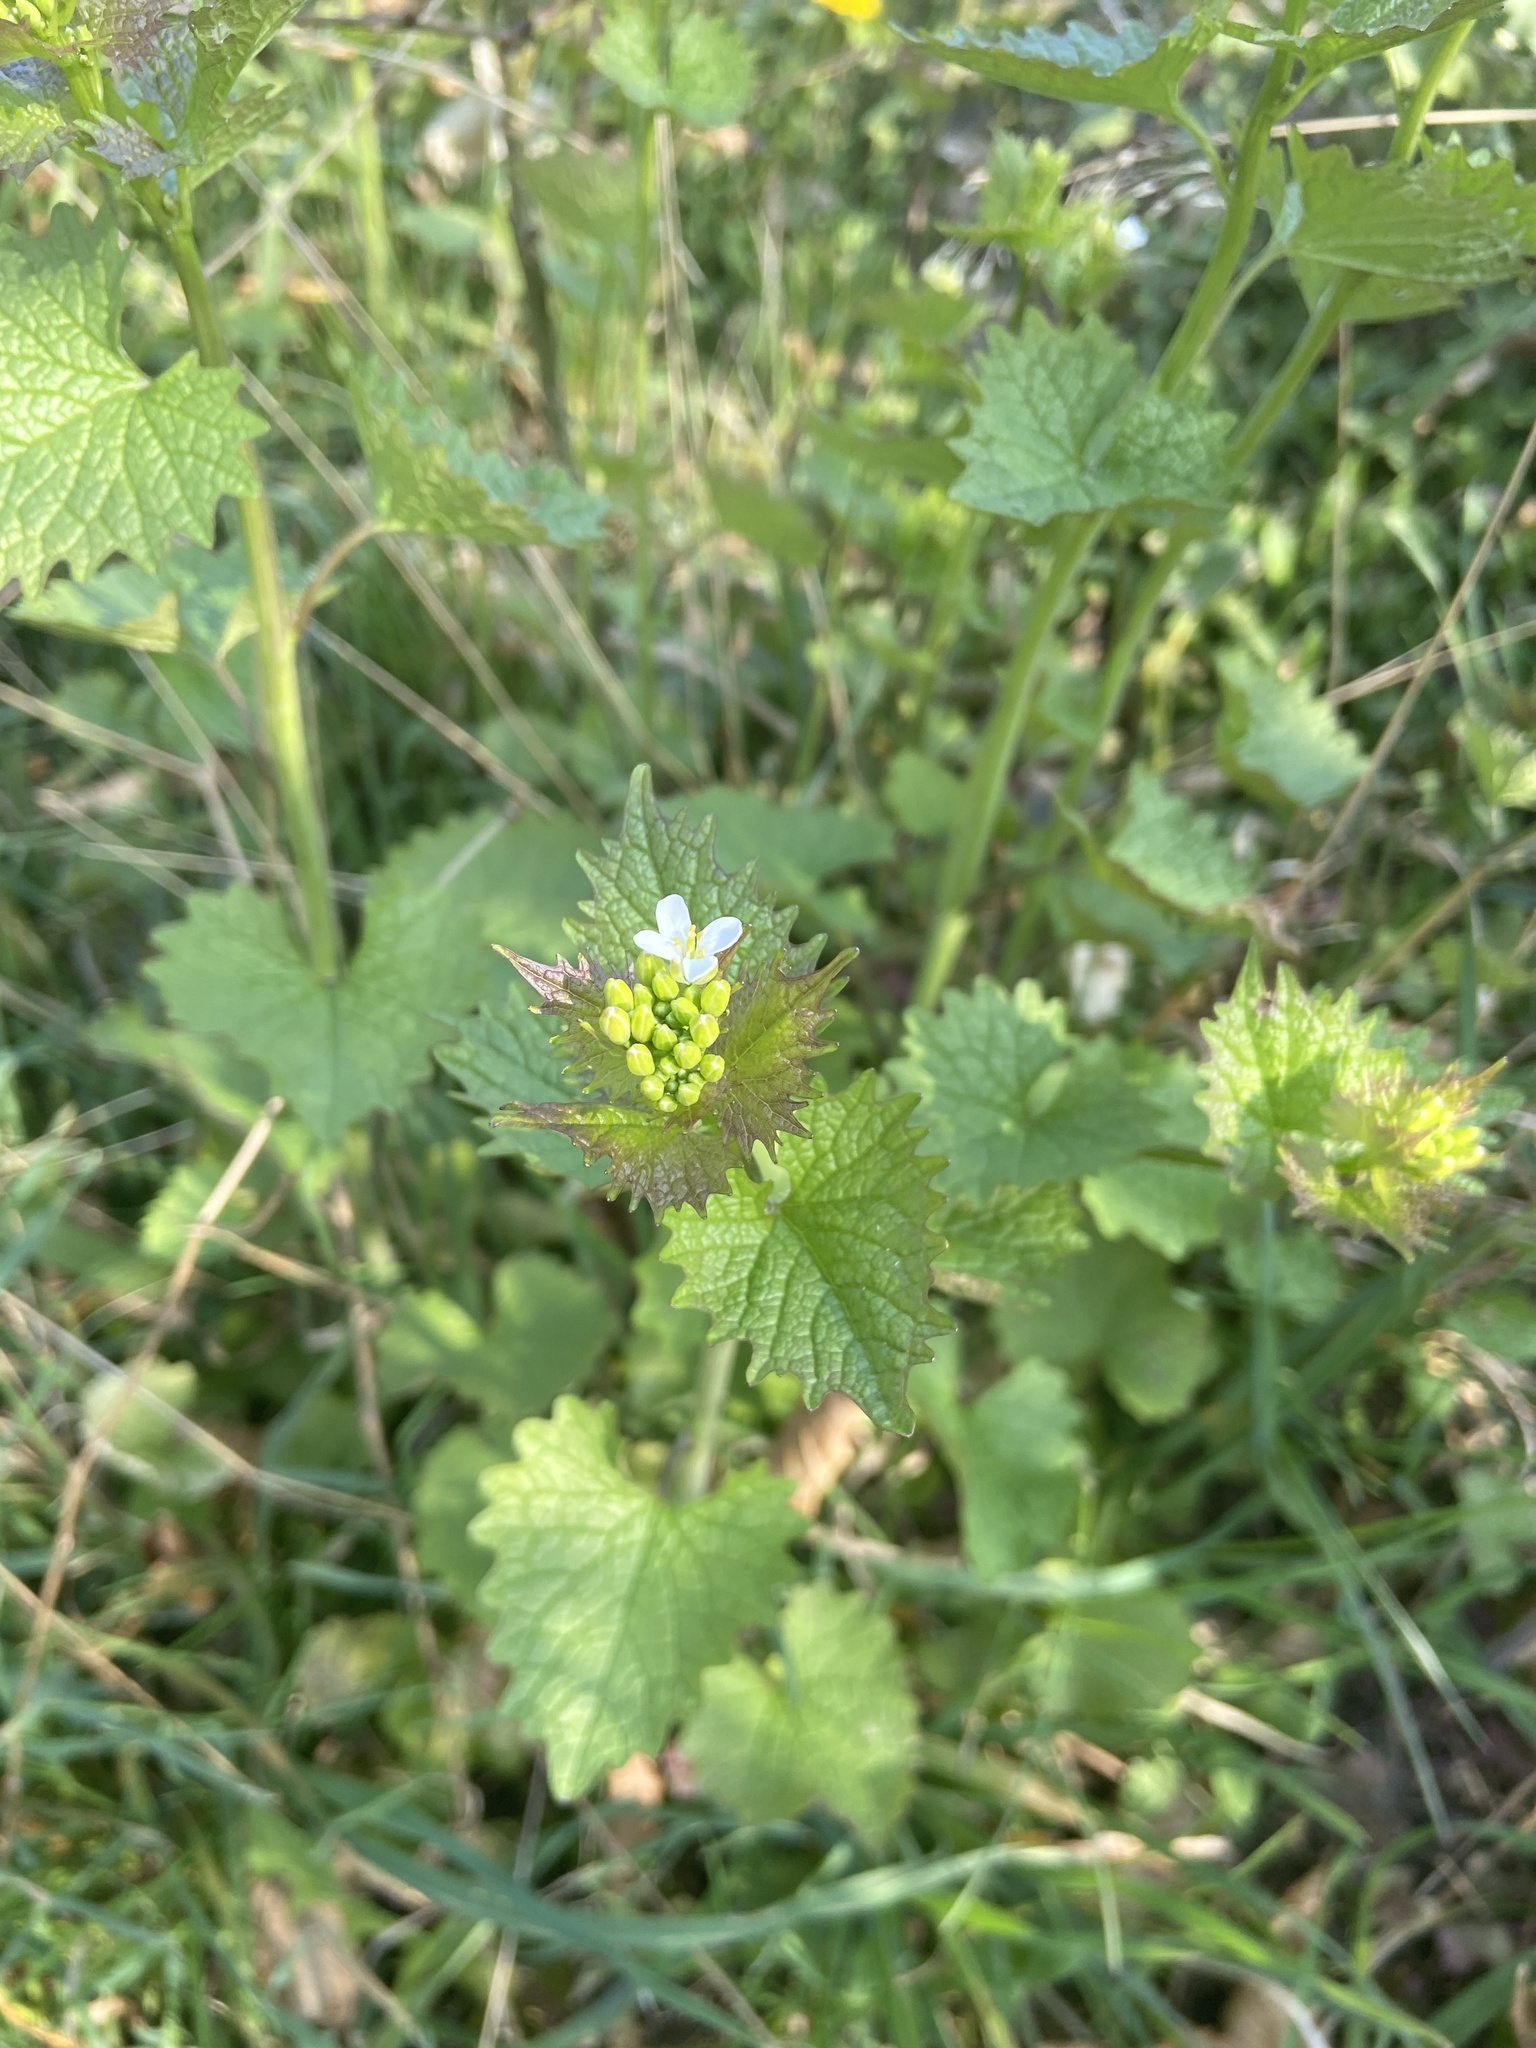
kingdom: Plantae
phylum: Tracheophyta
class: Magnoliopsida
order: Brassicales
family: Brassicaceae
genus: Alliaria
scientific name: Alliaria petiolata
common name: Garlic mustard
